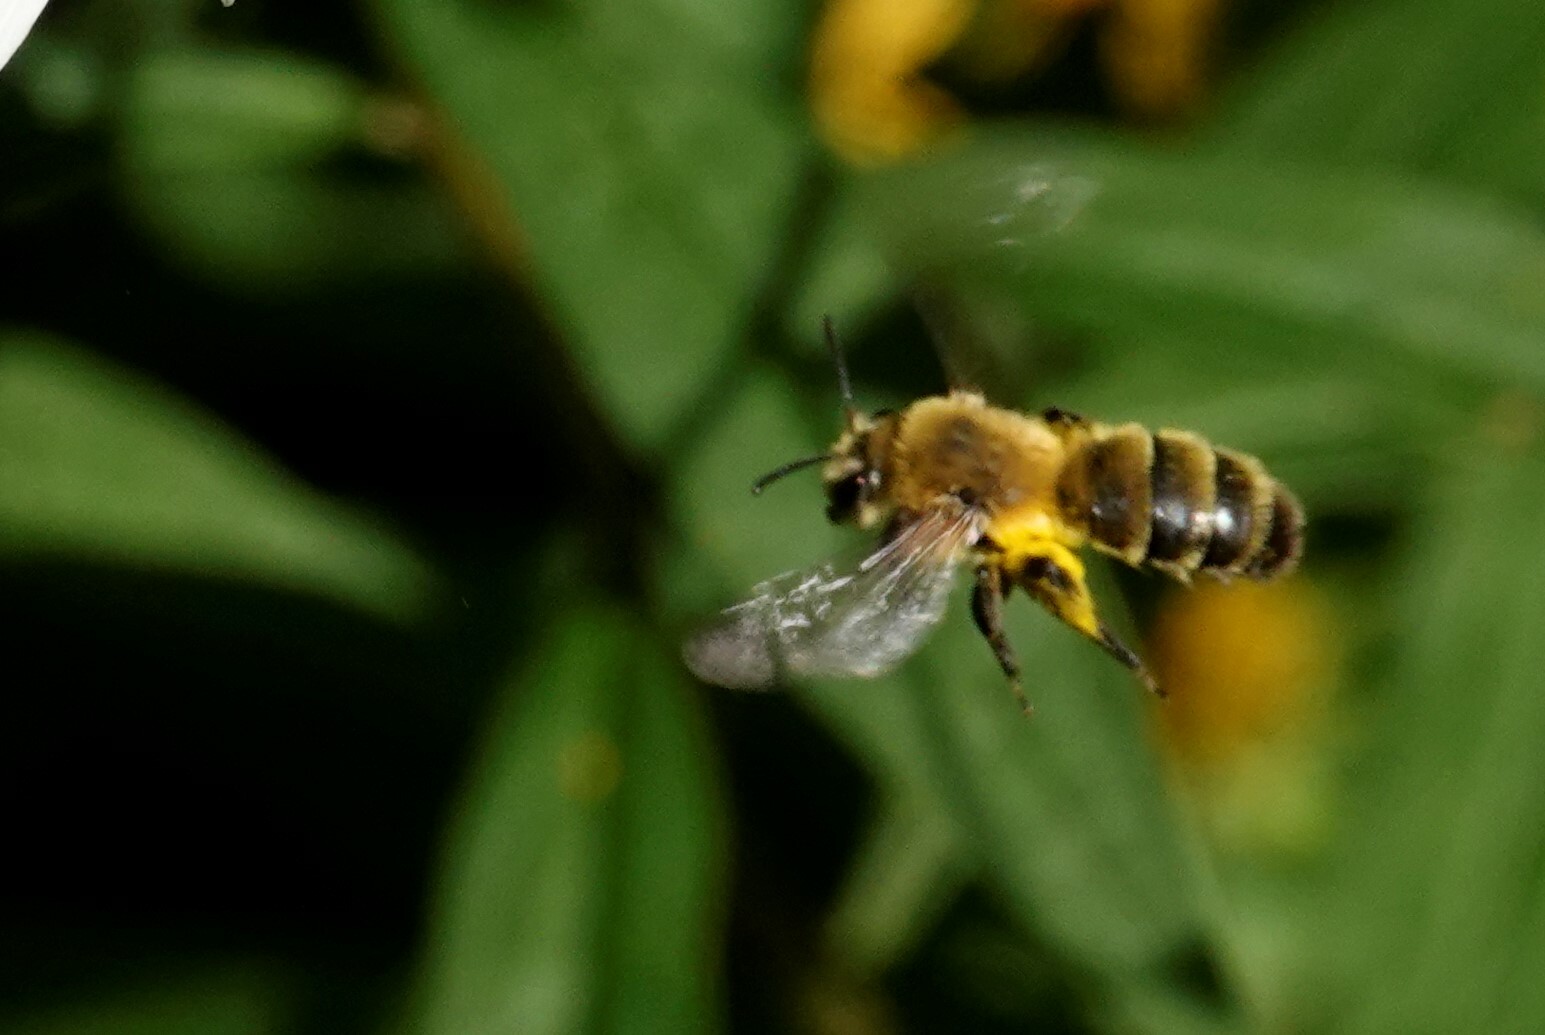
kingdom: Animalia
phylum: Arthropoda
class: Insecta
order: Hymenoptera
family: Andrenidae
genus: Andrena
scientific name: Andrena hirticincta
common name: Hairy-banded mining bee
